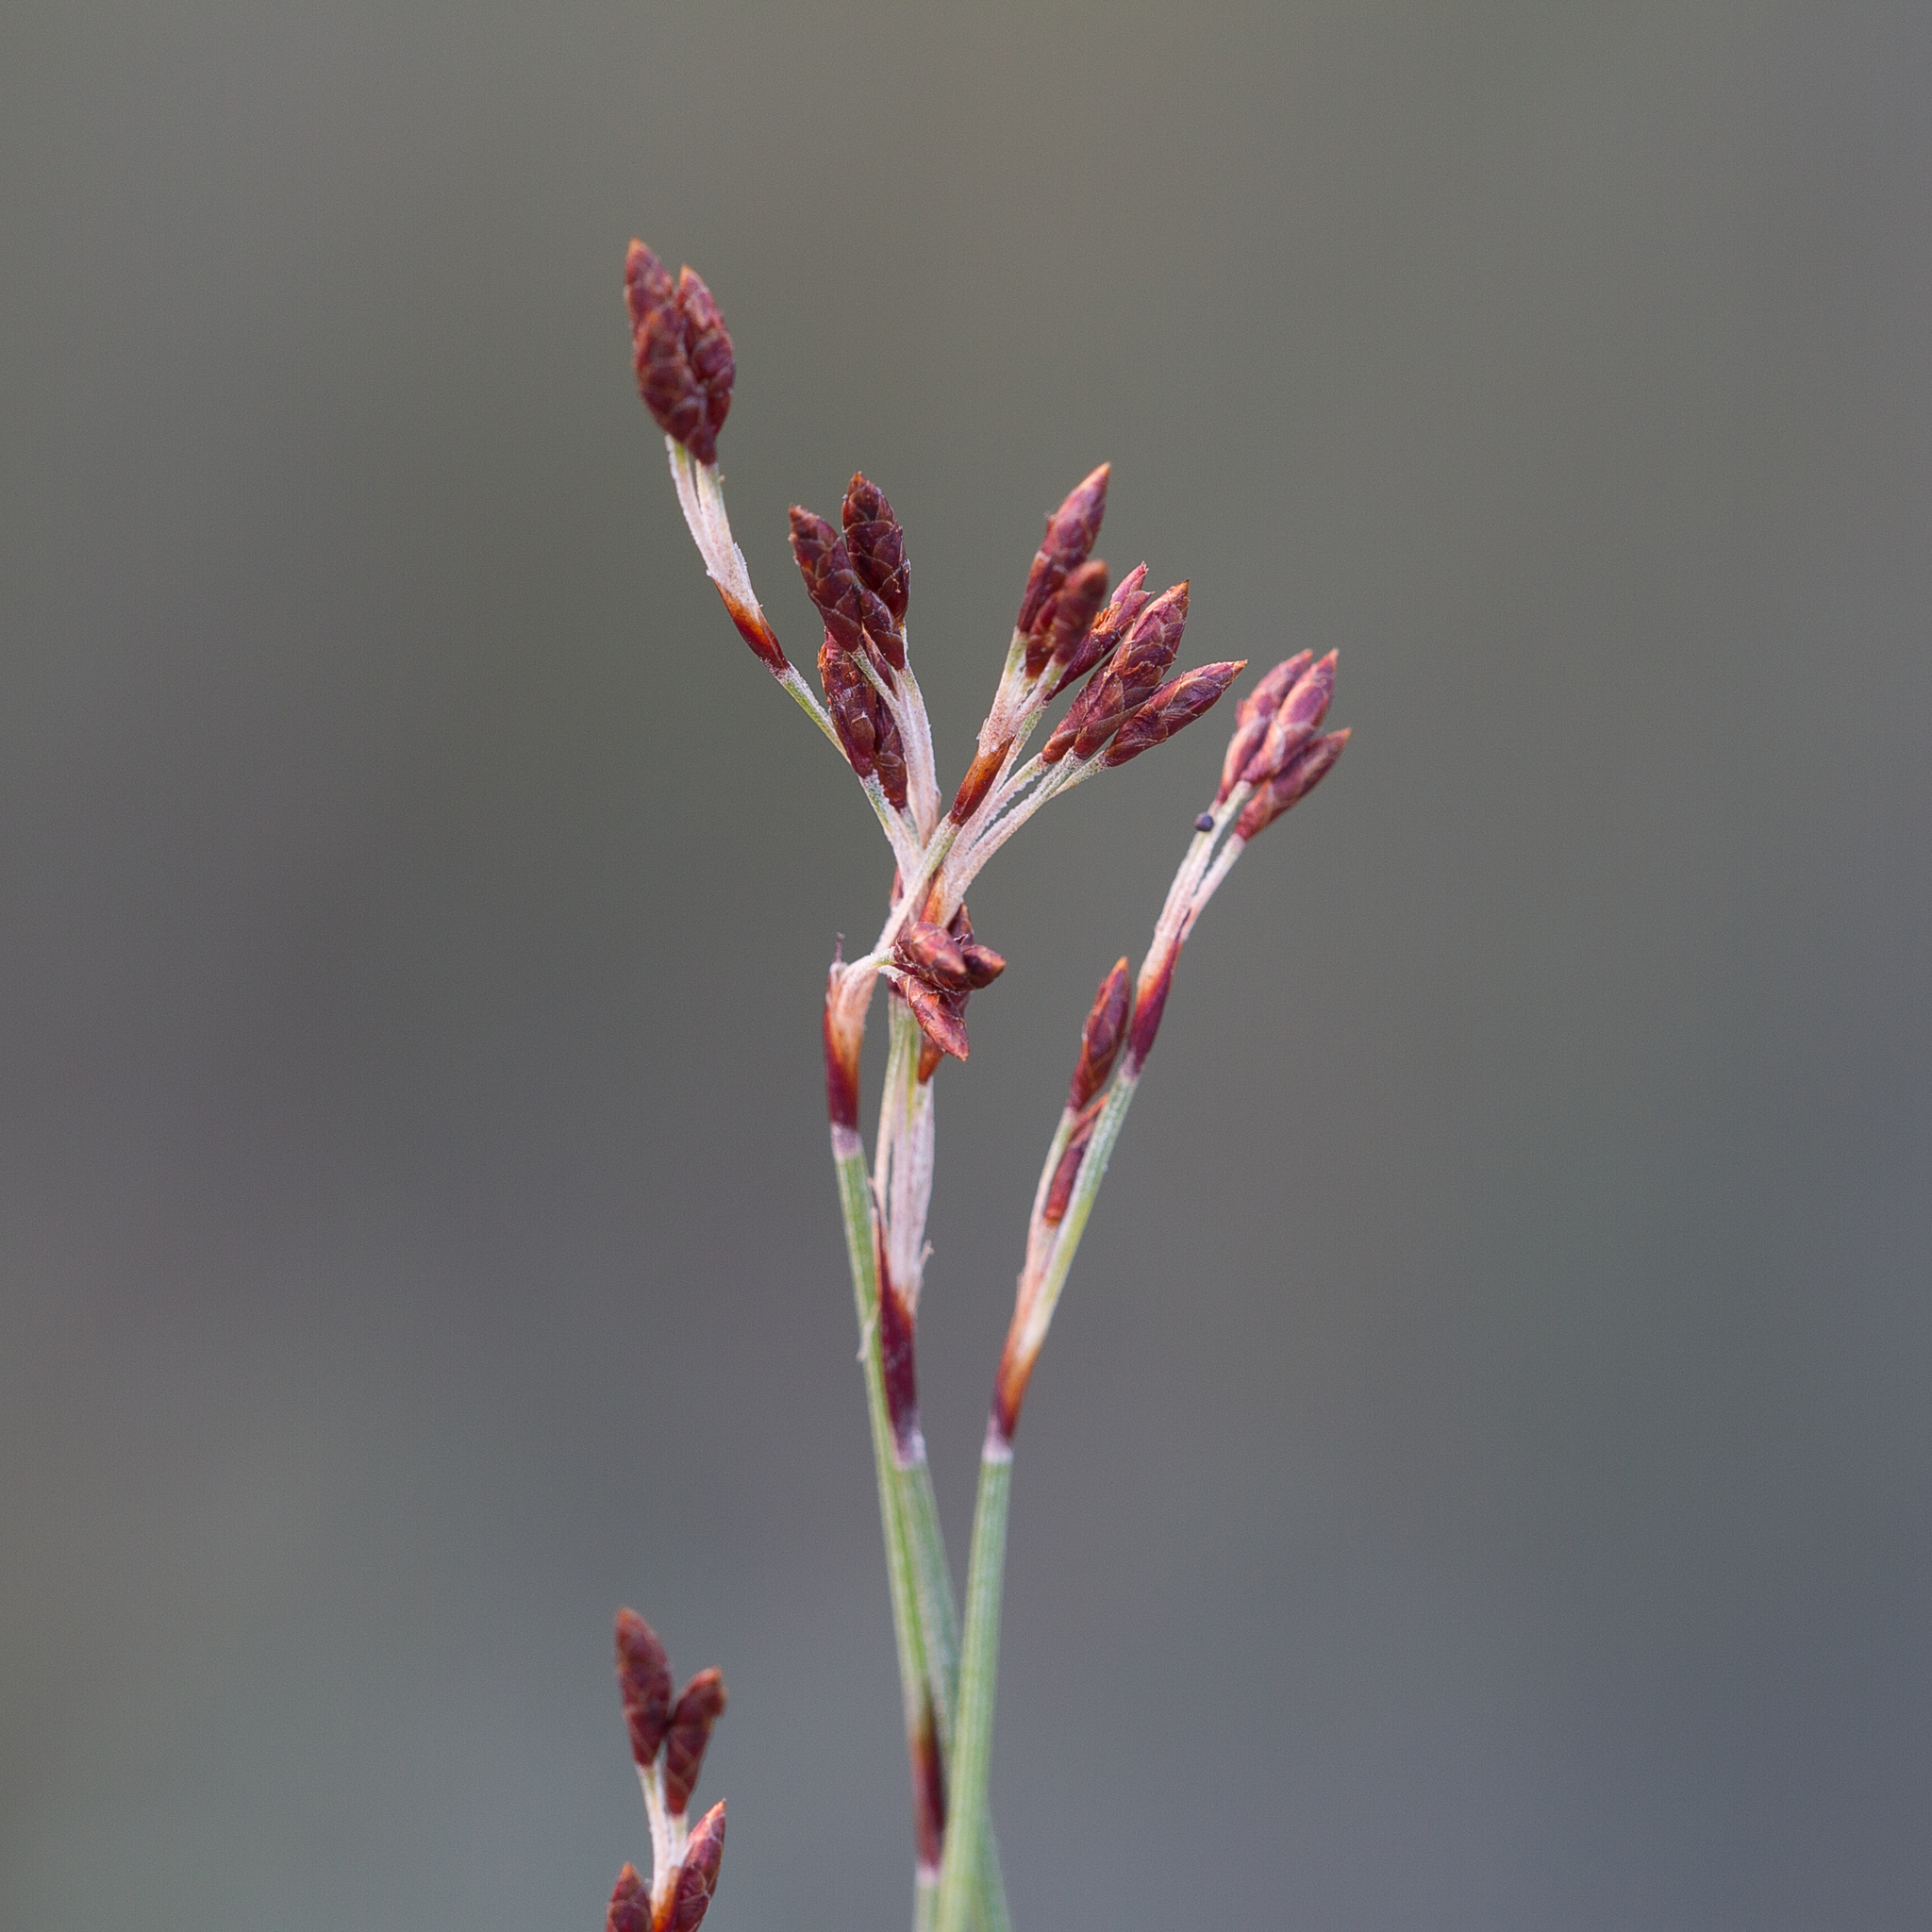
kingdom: Plantae
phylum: Tracheophyta
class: Liliopsida
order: Poales
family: Restionaceae
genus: Hypolaena
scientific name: Hypolaena fastigiata
